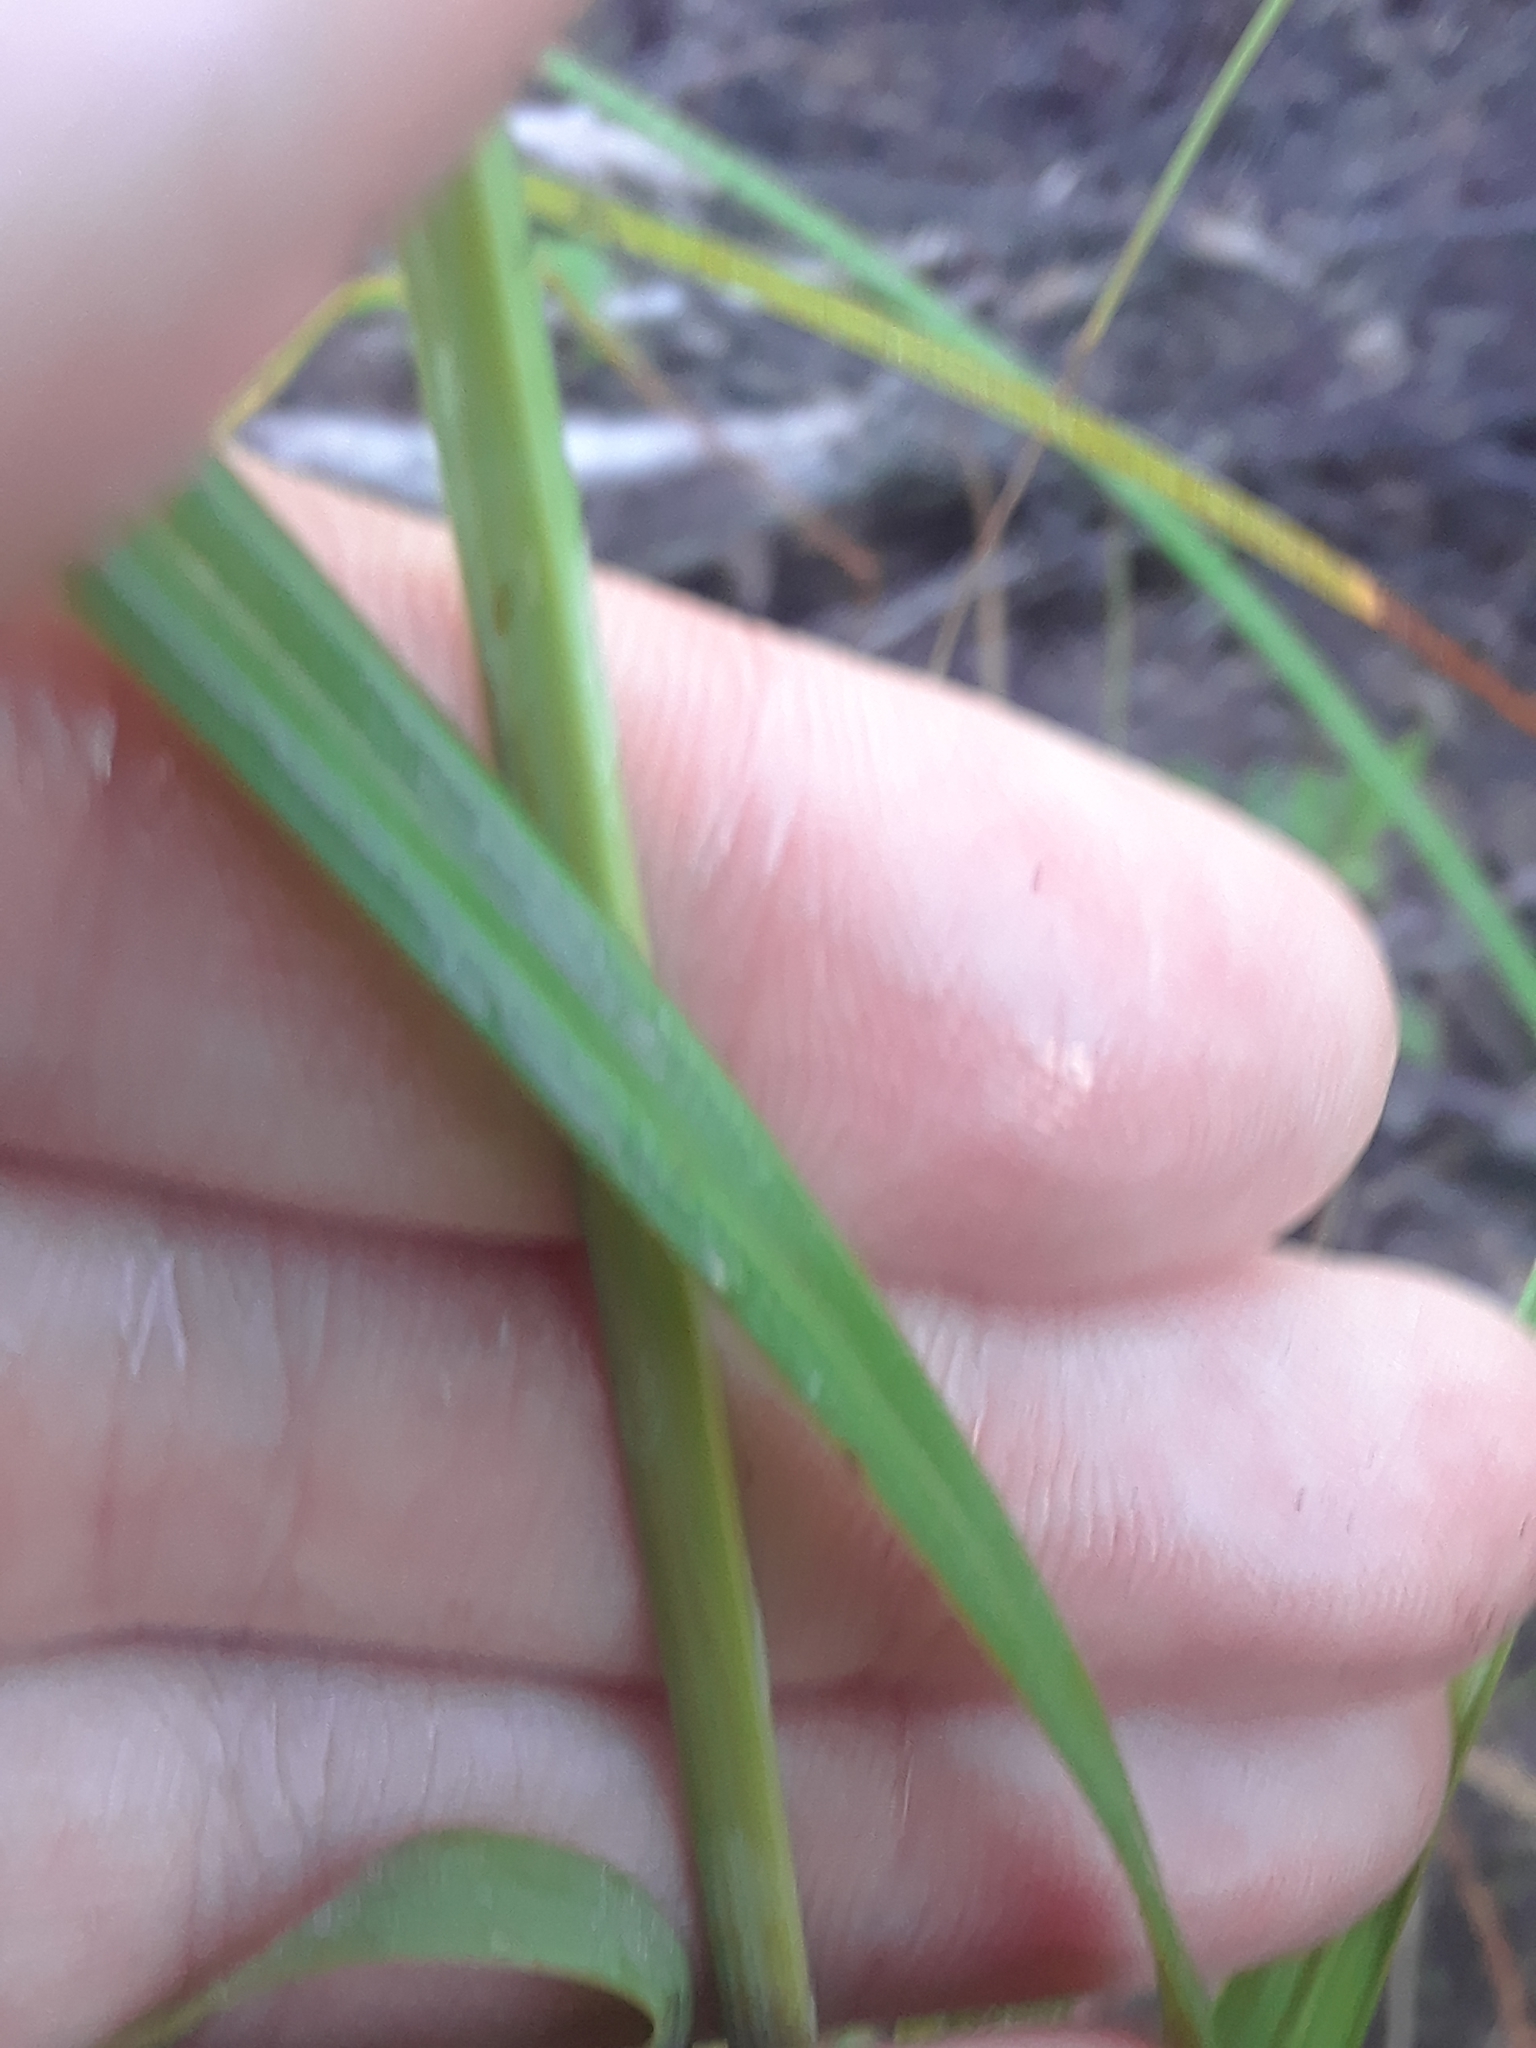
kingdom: Plantae
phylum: Tracheophyta
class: Liliopsida
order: Poales
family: Cyperaceae
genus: Carex
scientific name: Carex glaucescens
